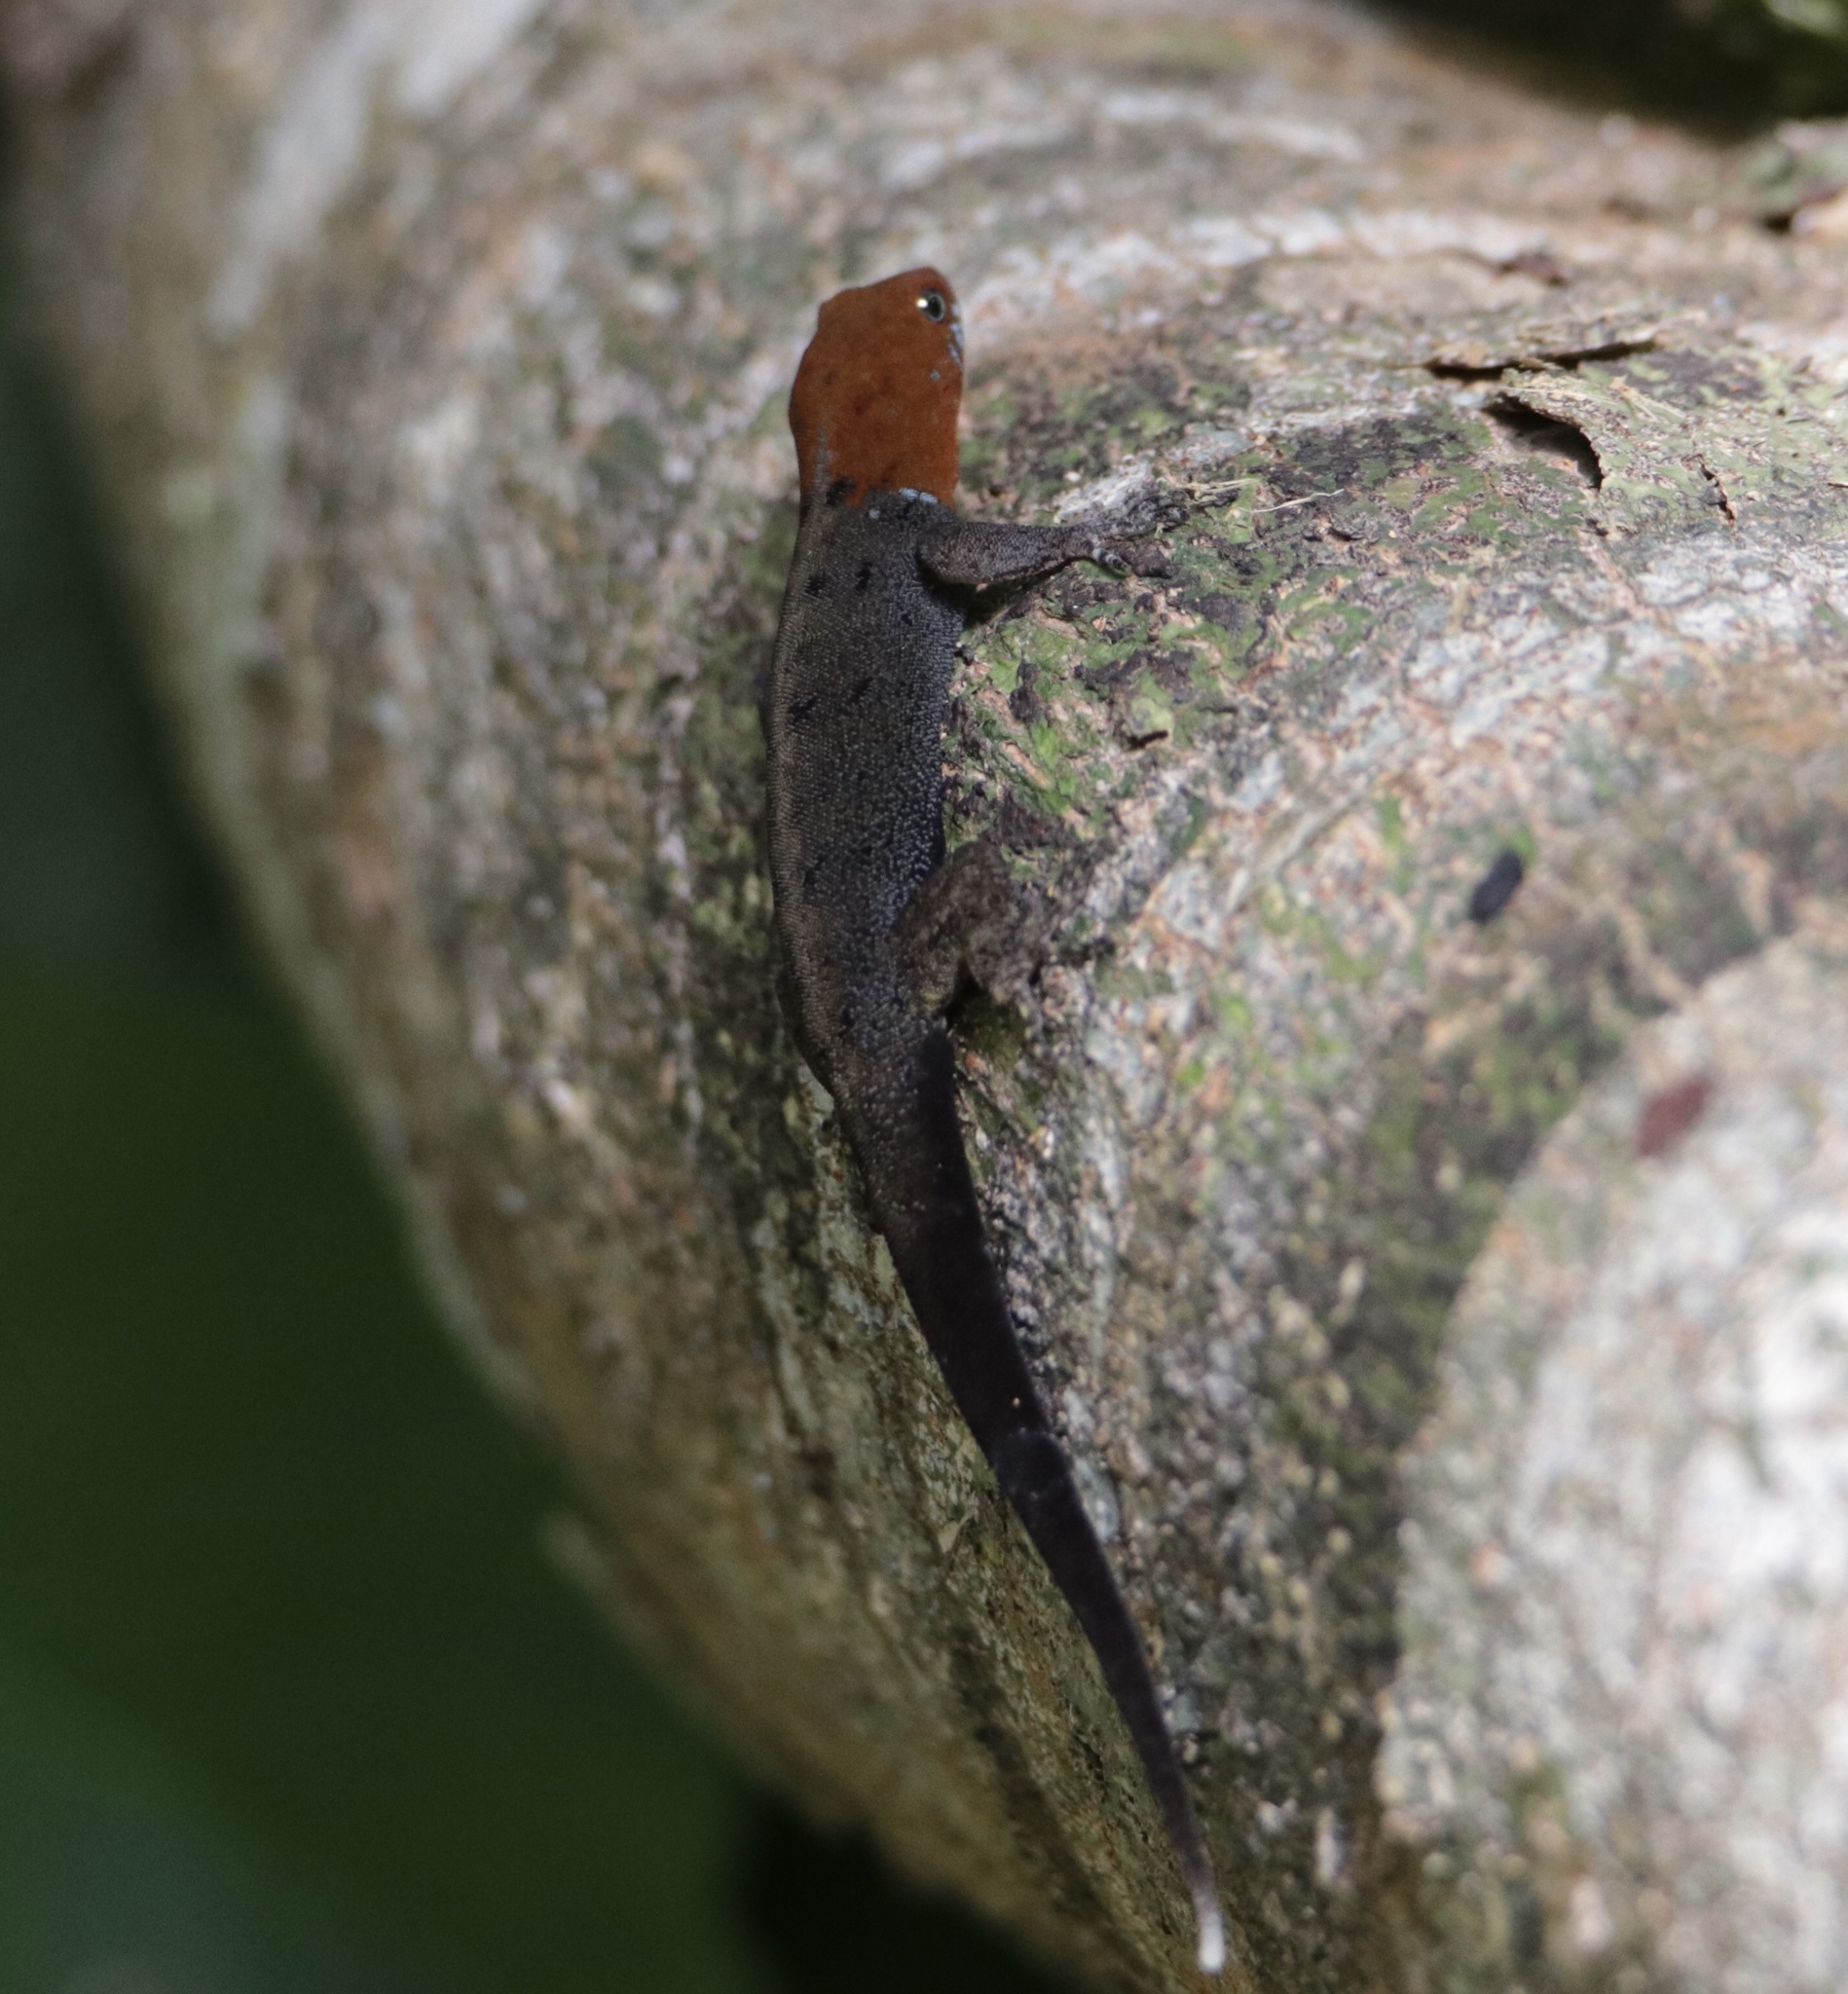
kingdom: Animalia
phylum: Chordata
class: Squamata
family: Sphaerodactylidae
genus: Gonatodes
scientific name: Gonatodes albogularis
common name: Yellow-headed gecko
